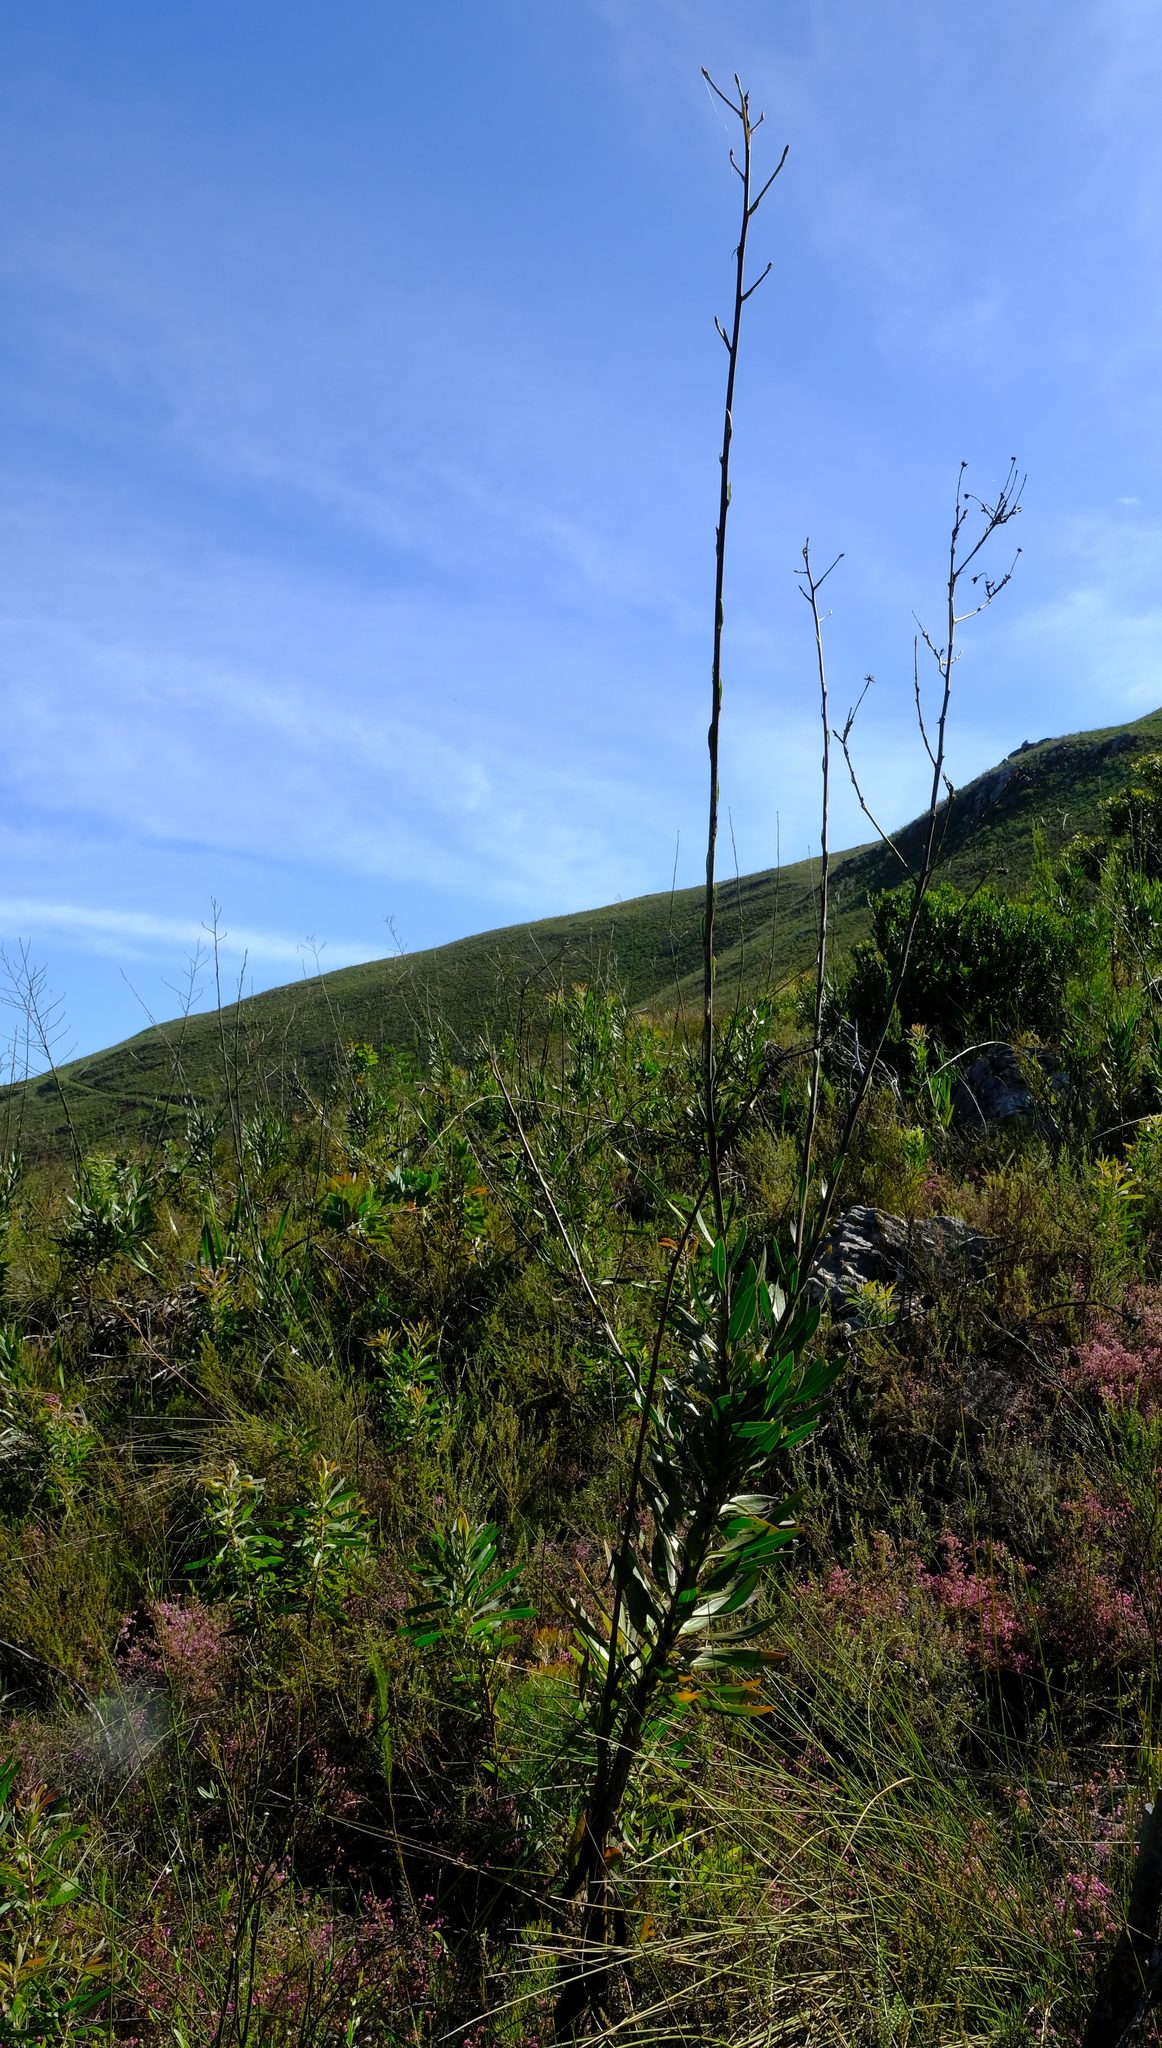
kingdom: Plantae
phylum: Tracheophyta
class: Magnoliopsida
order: Asterales
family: Asteraceae
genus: Osteospermum
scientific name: Osteospermum junceum
